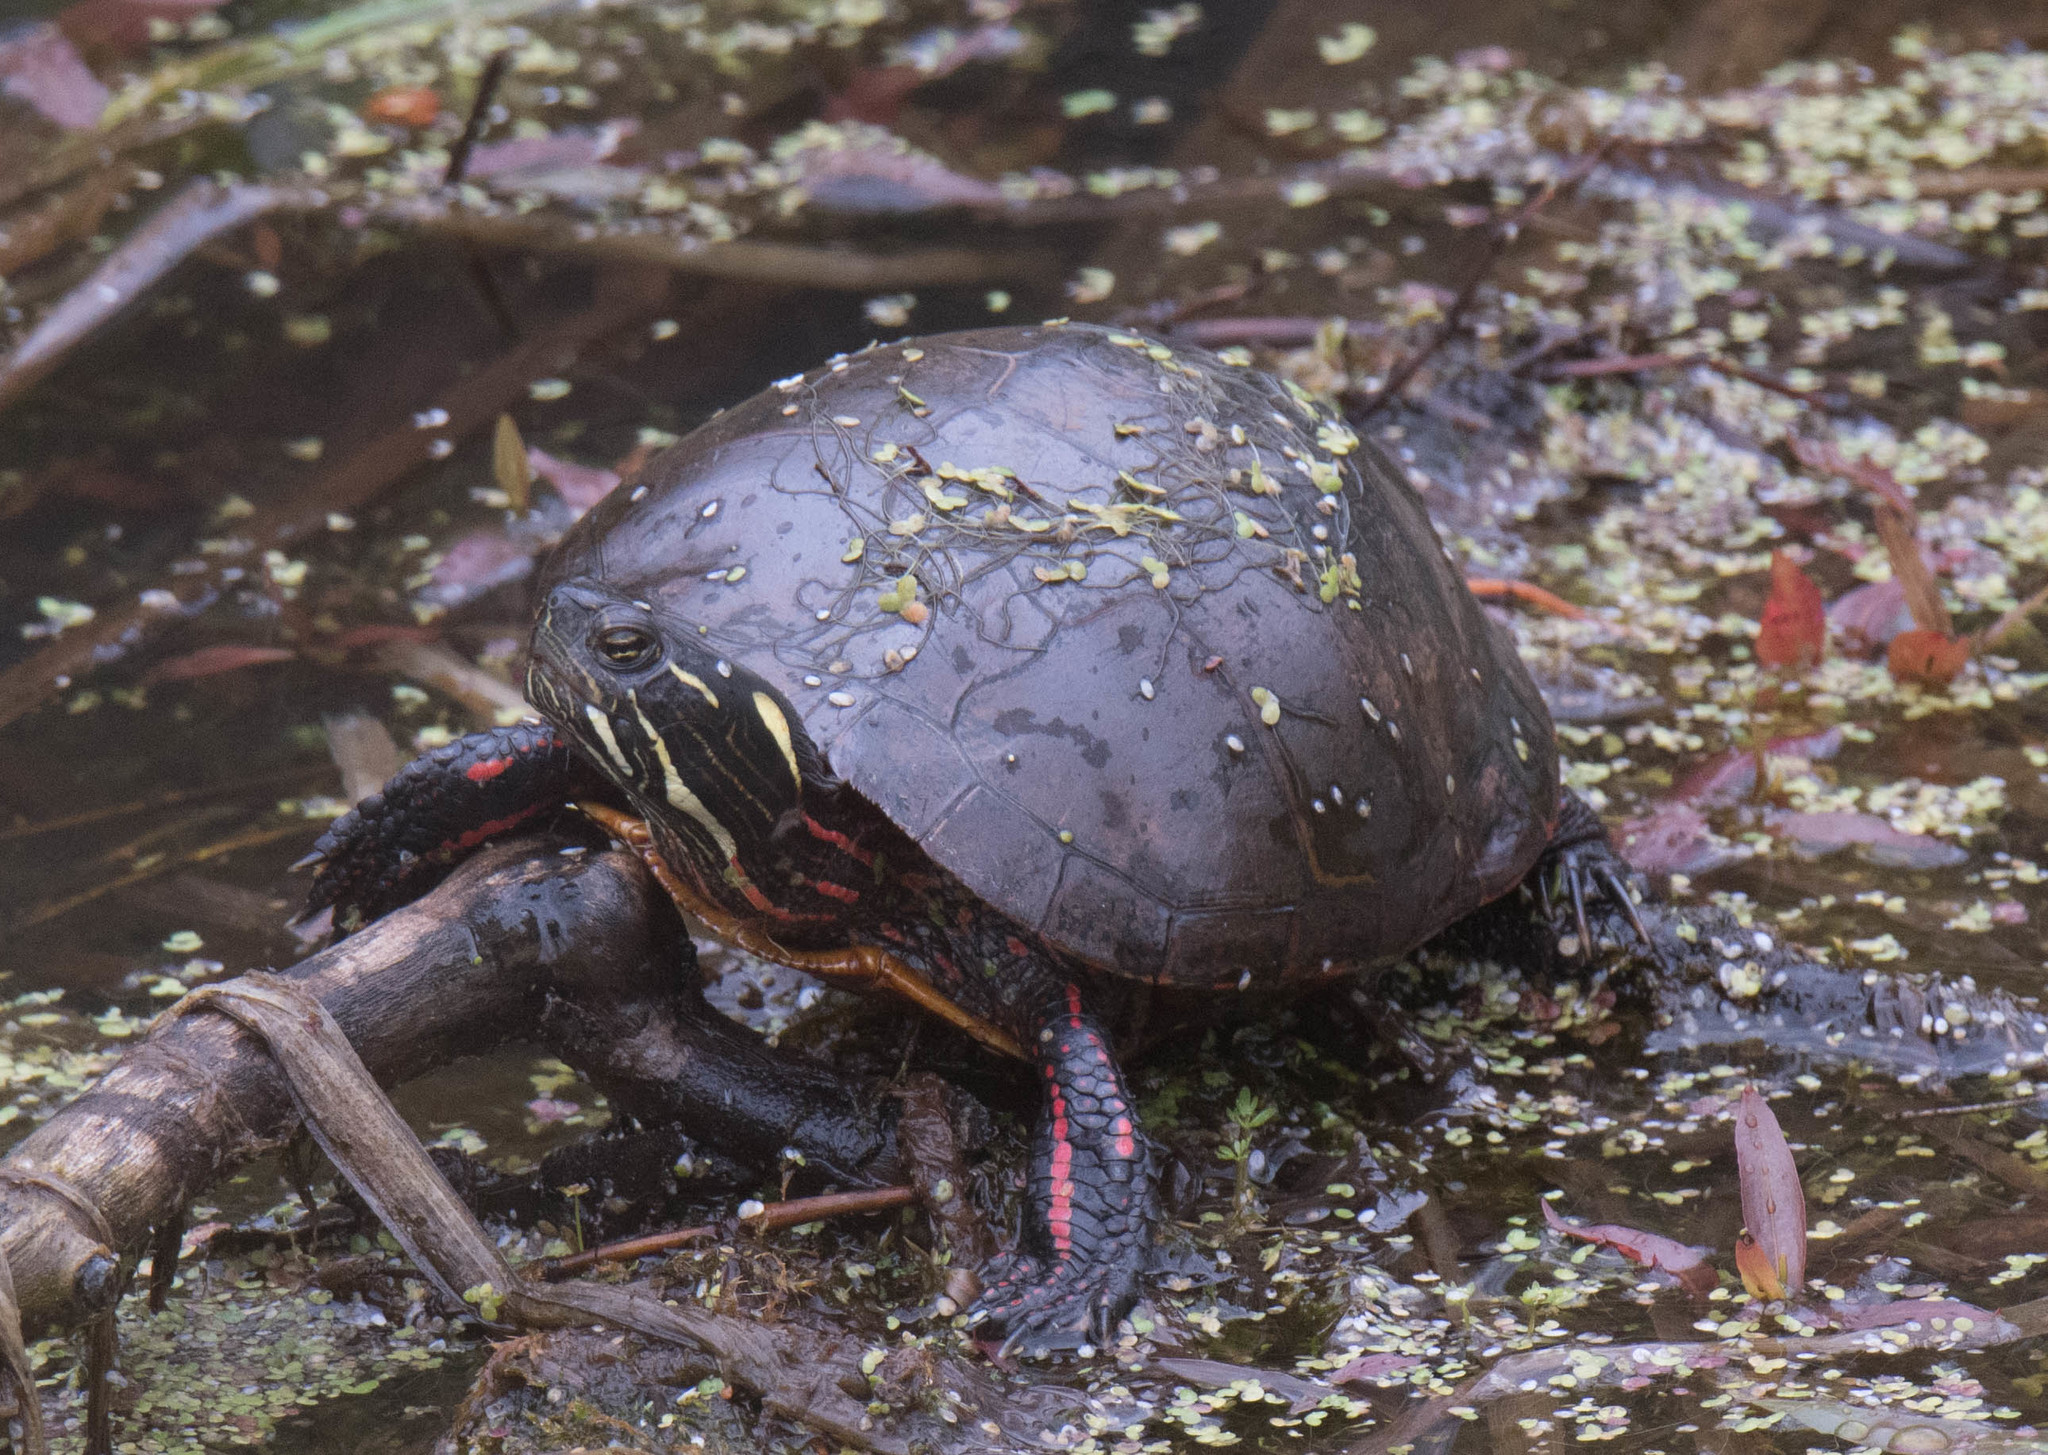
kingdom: Animalia
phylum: Chordata
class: Testudines
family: Emydidae
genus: Chrysemys
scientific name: Chrysemys picta
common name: Painted turtle
